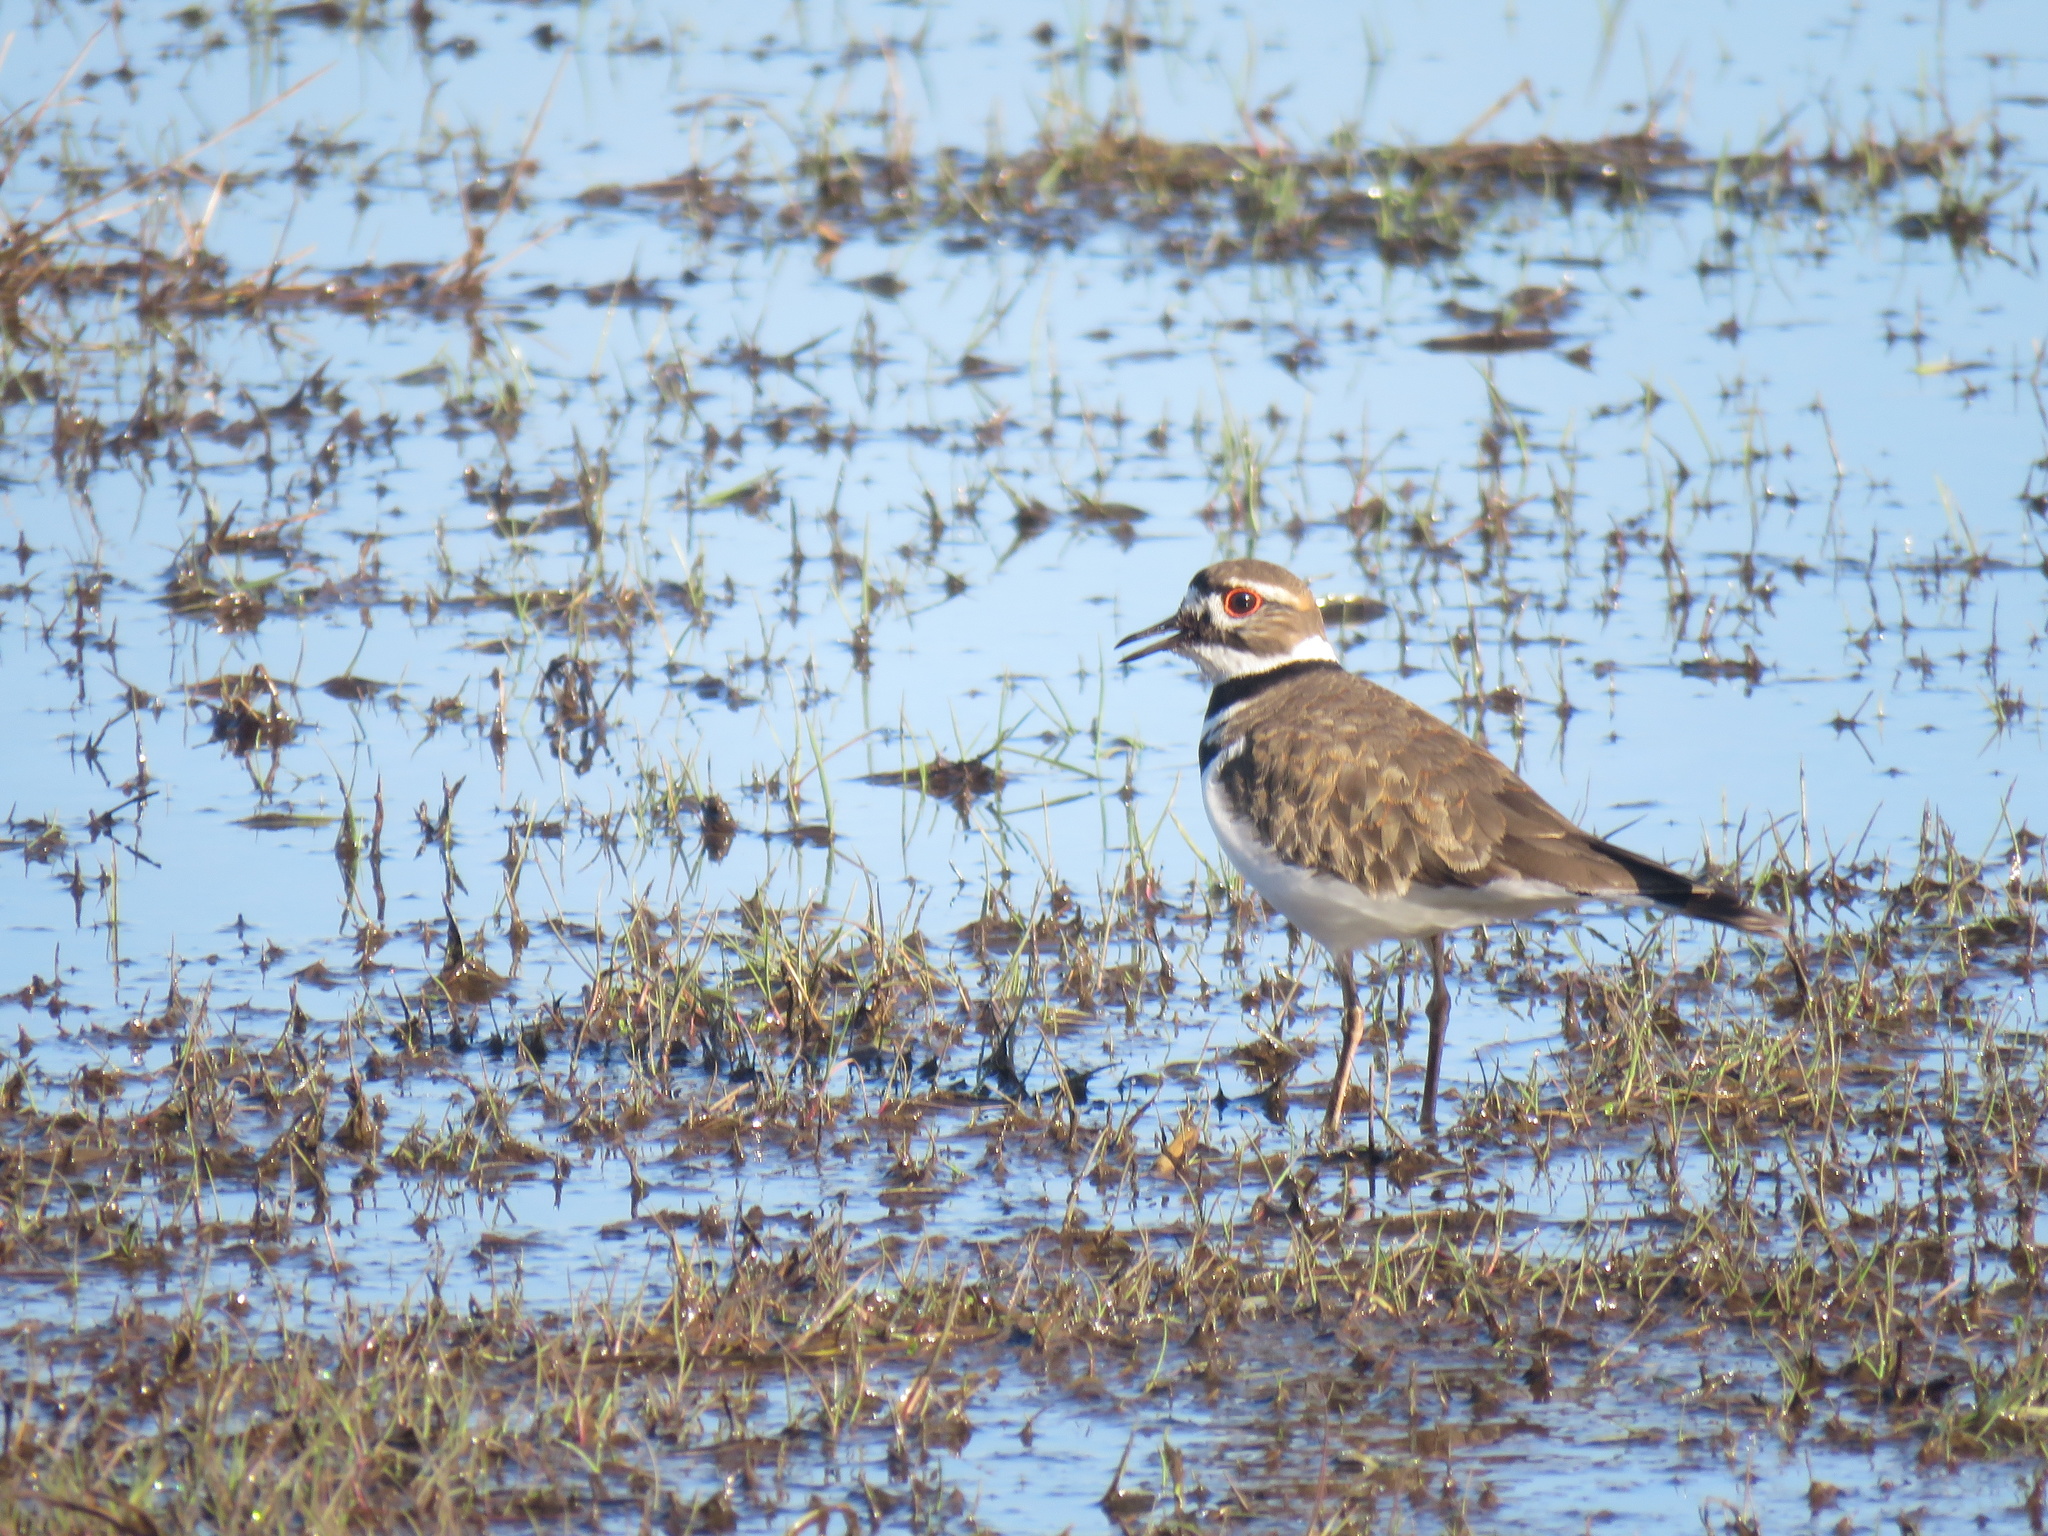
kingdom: Animalia
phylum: Chordata
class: Aves
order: Charadriiformes
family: Charadriidae
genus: Charadrius
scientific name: Charadrius vociferus
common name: Killdeer
